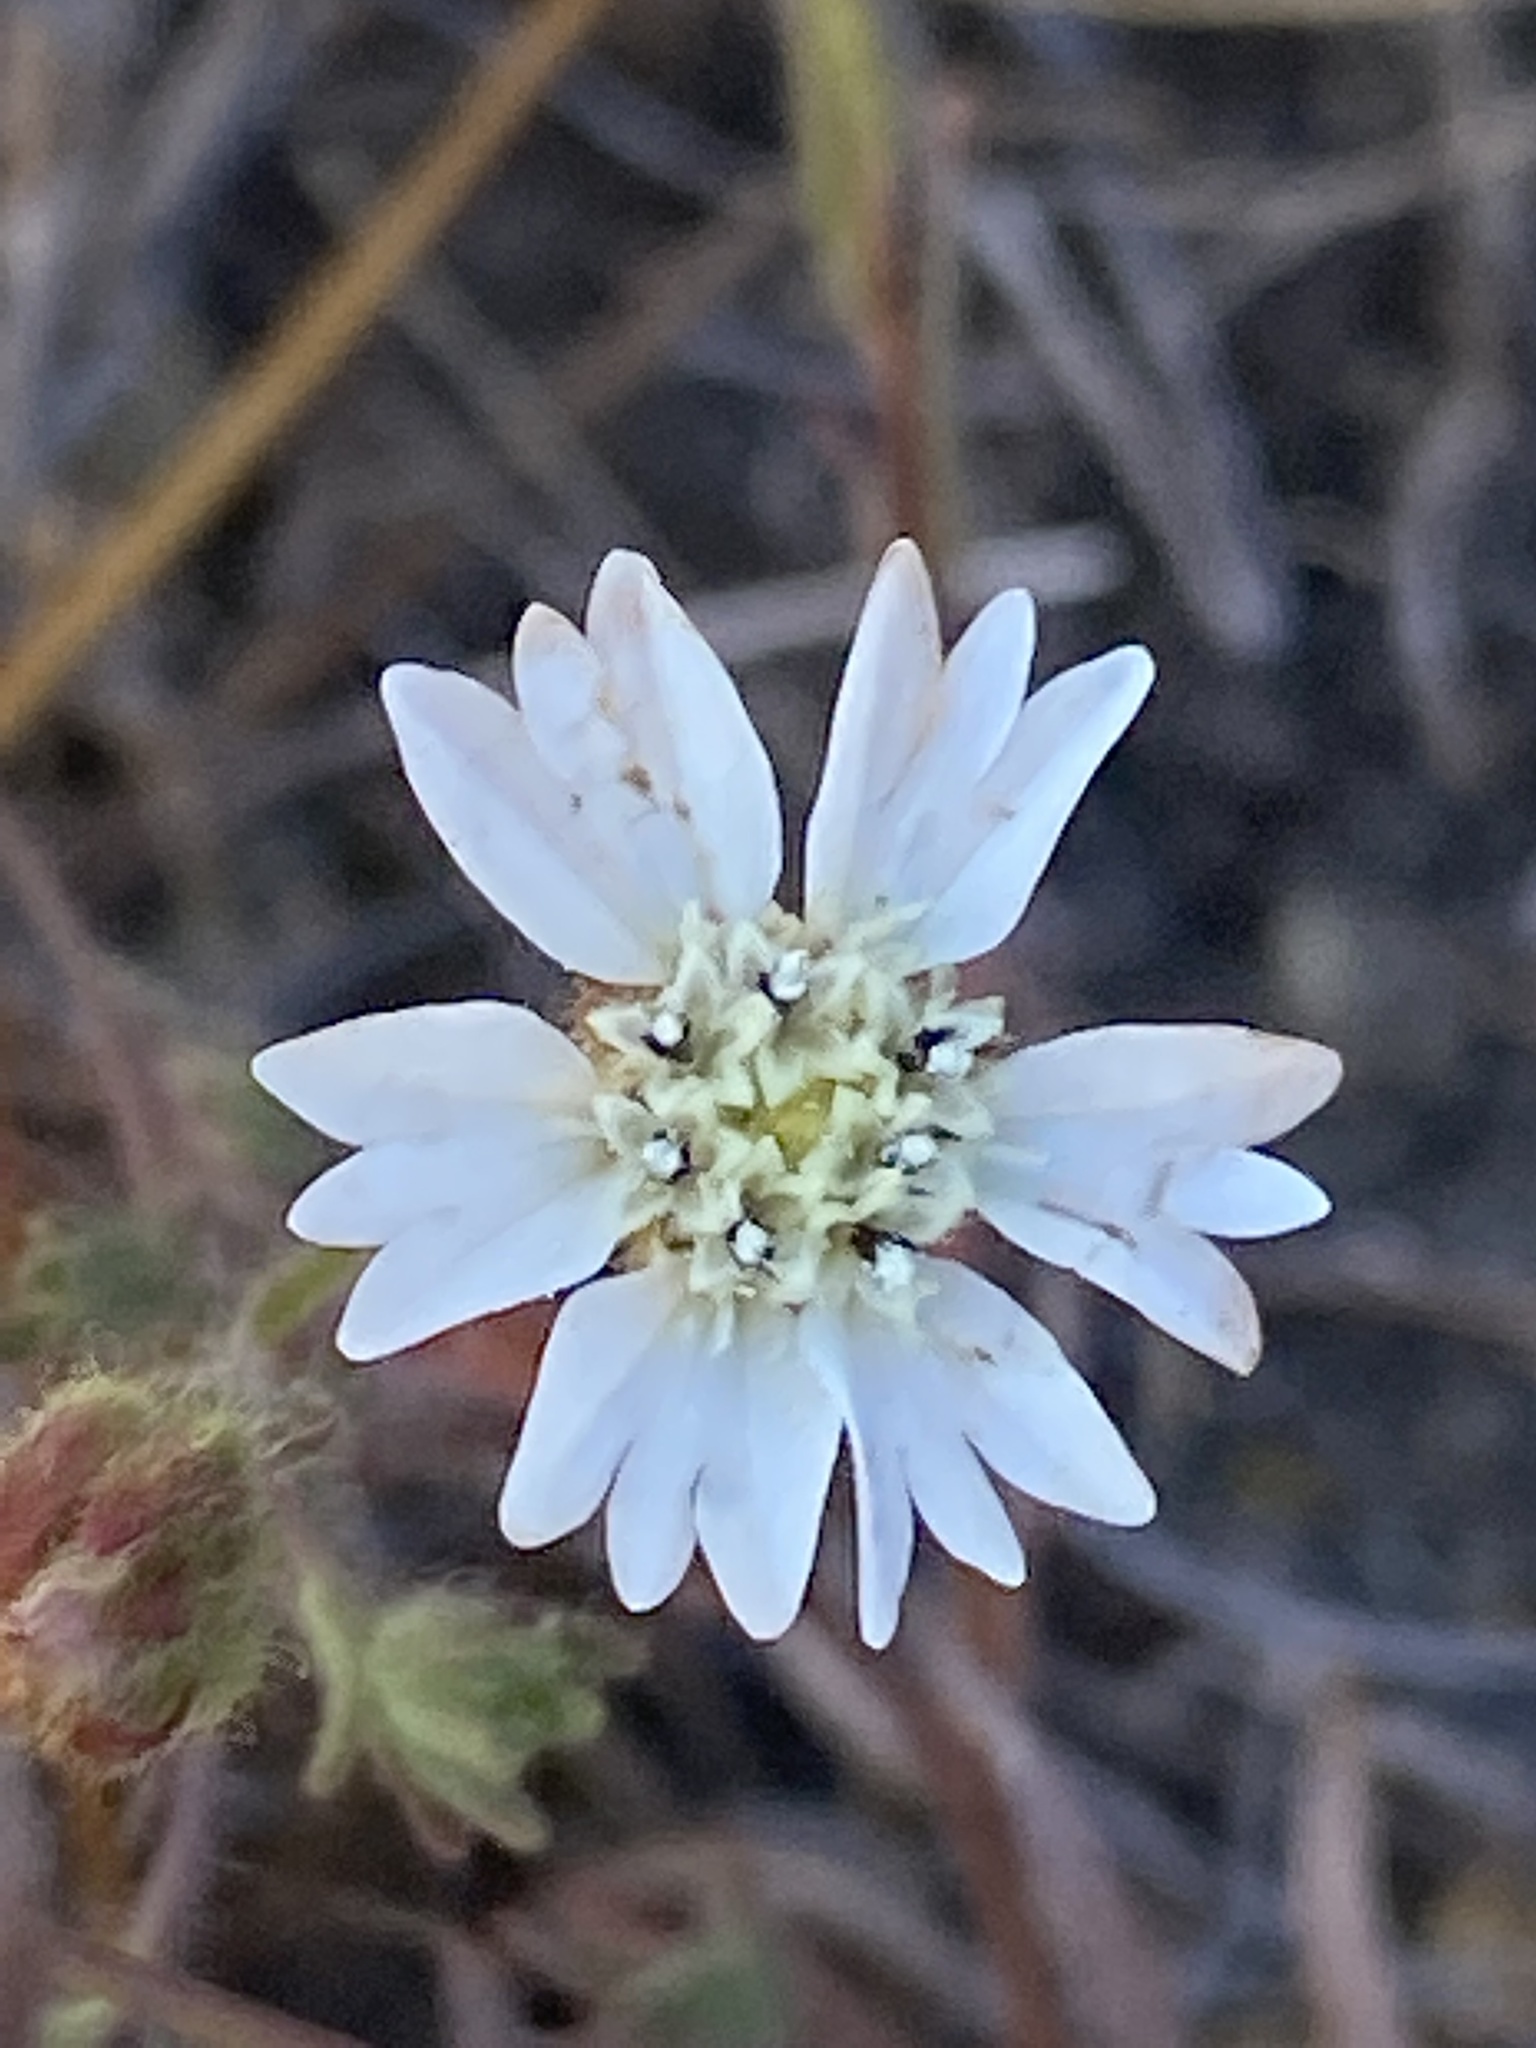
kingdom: Plantae
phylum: Tracheophyta
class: Magnoliopsida
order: Asterales
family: Asteraceae
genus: Hemizonia
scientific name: Hemizonia congesta
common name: Hayfield tarweed
